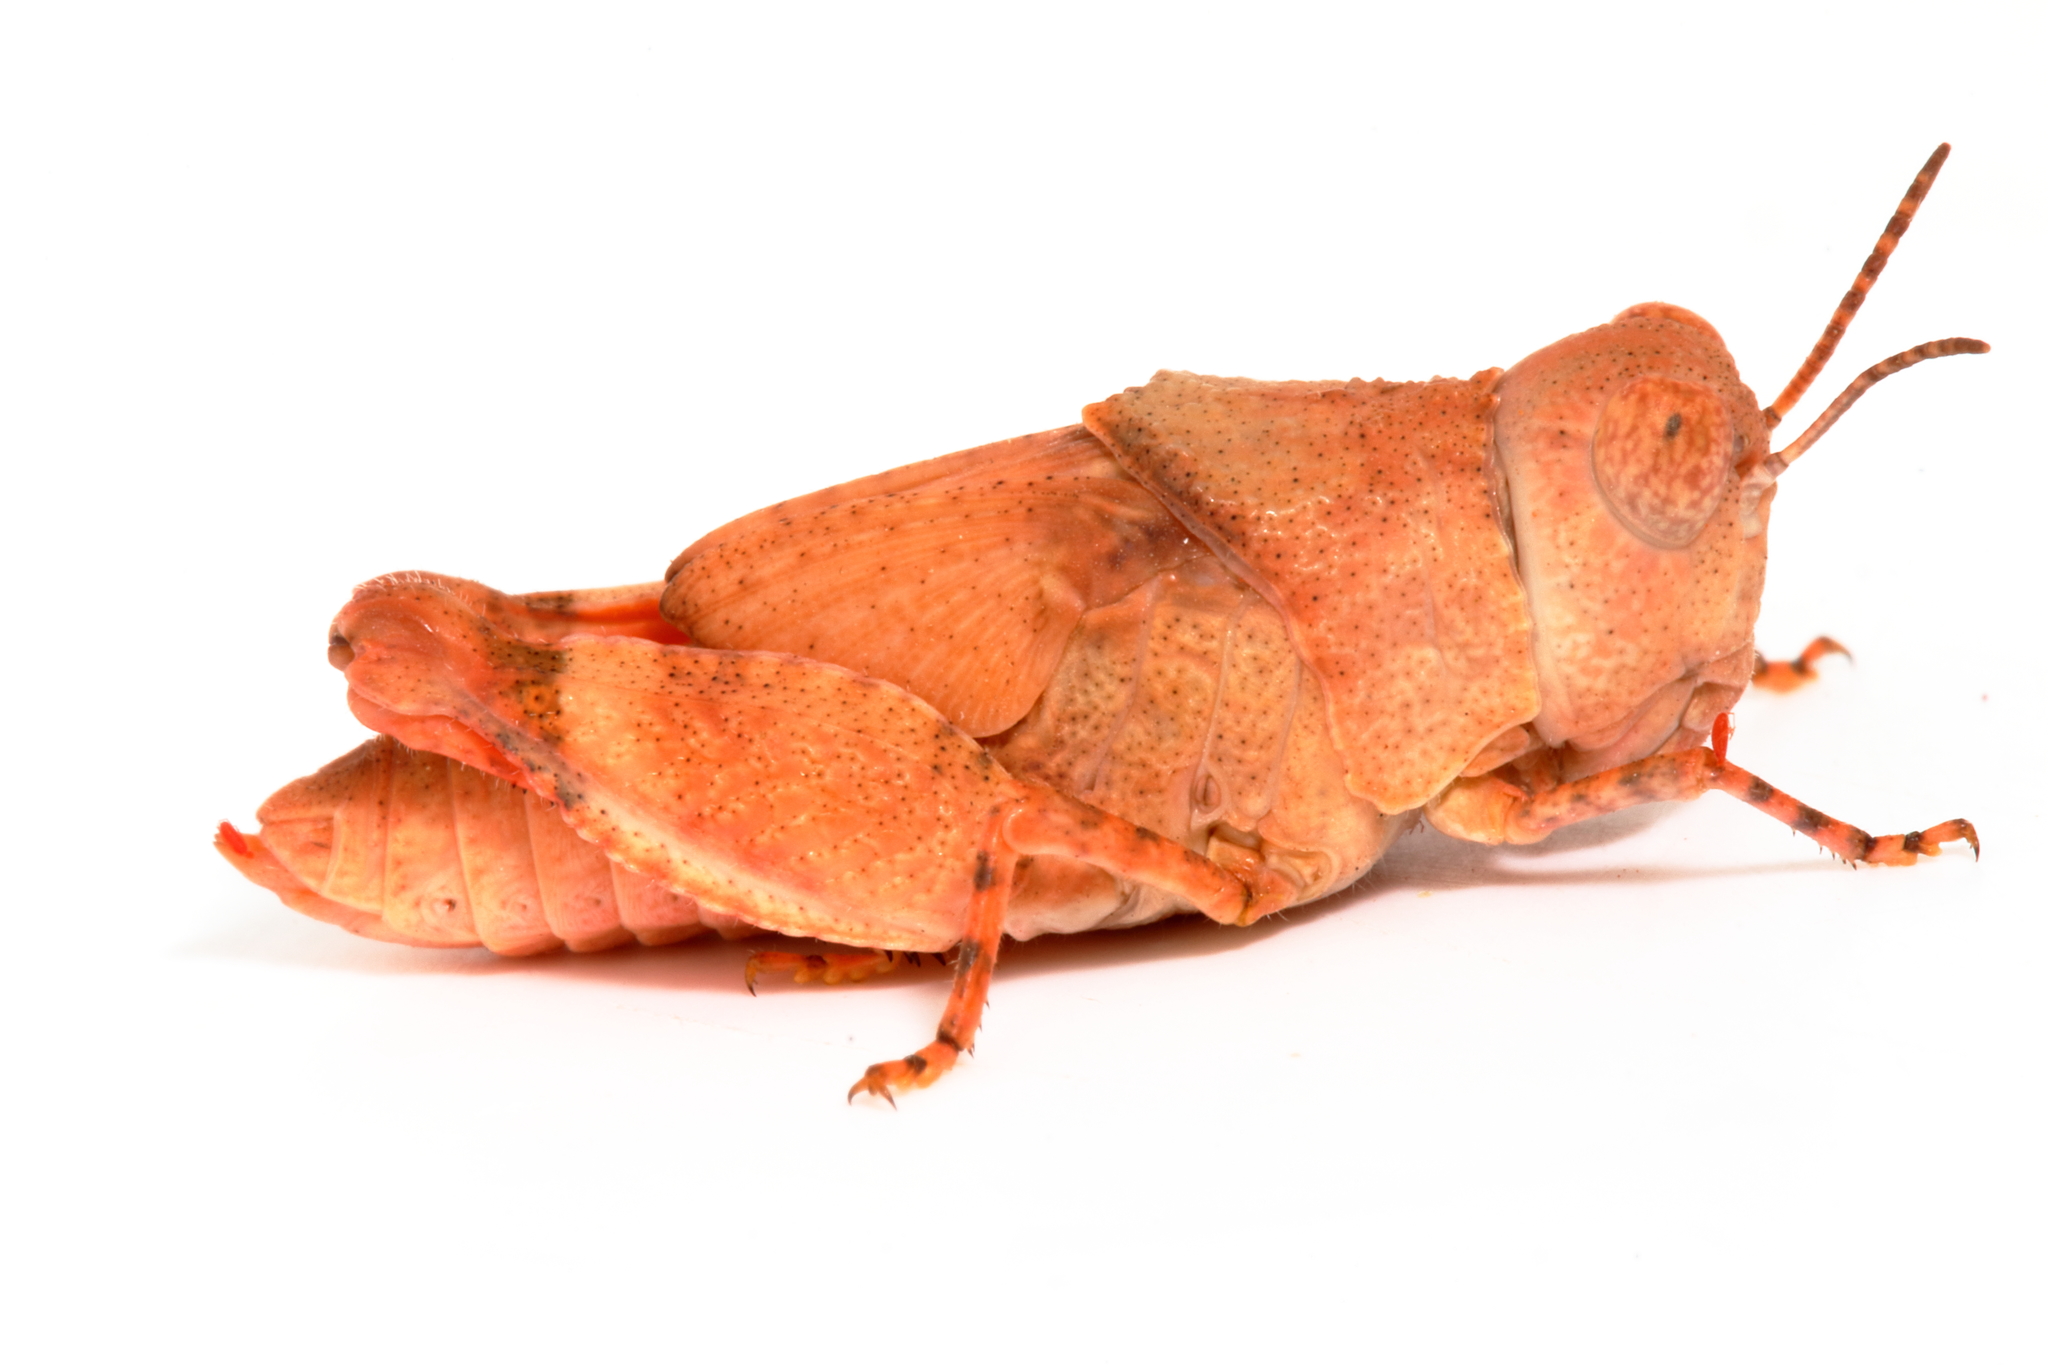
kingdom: Animalia
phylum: Arthropoda
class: Insecta
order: Orthoptera
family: Acrididae
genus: Qualetta
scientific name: Qualetta maculata
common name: Spotted bandwing
